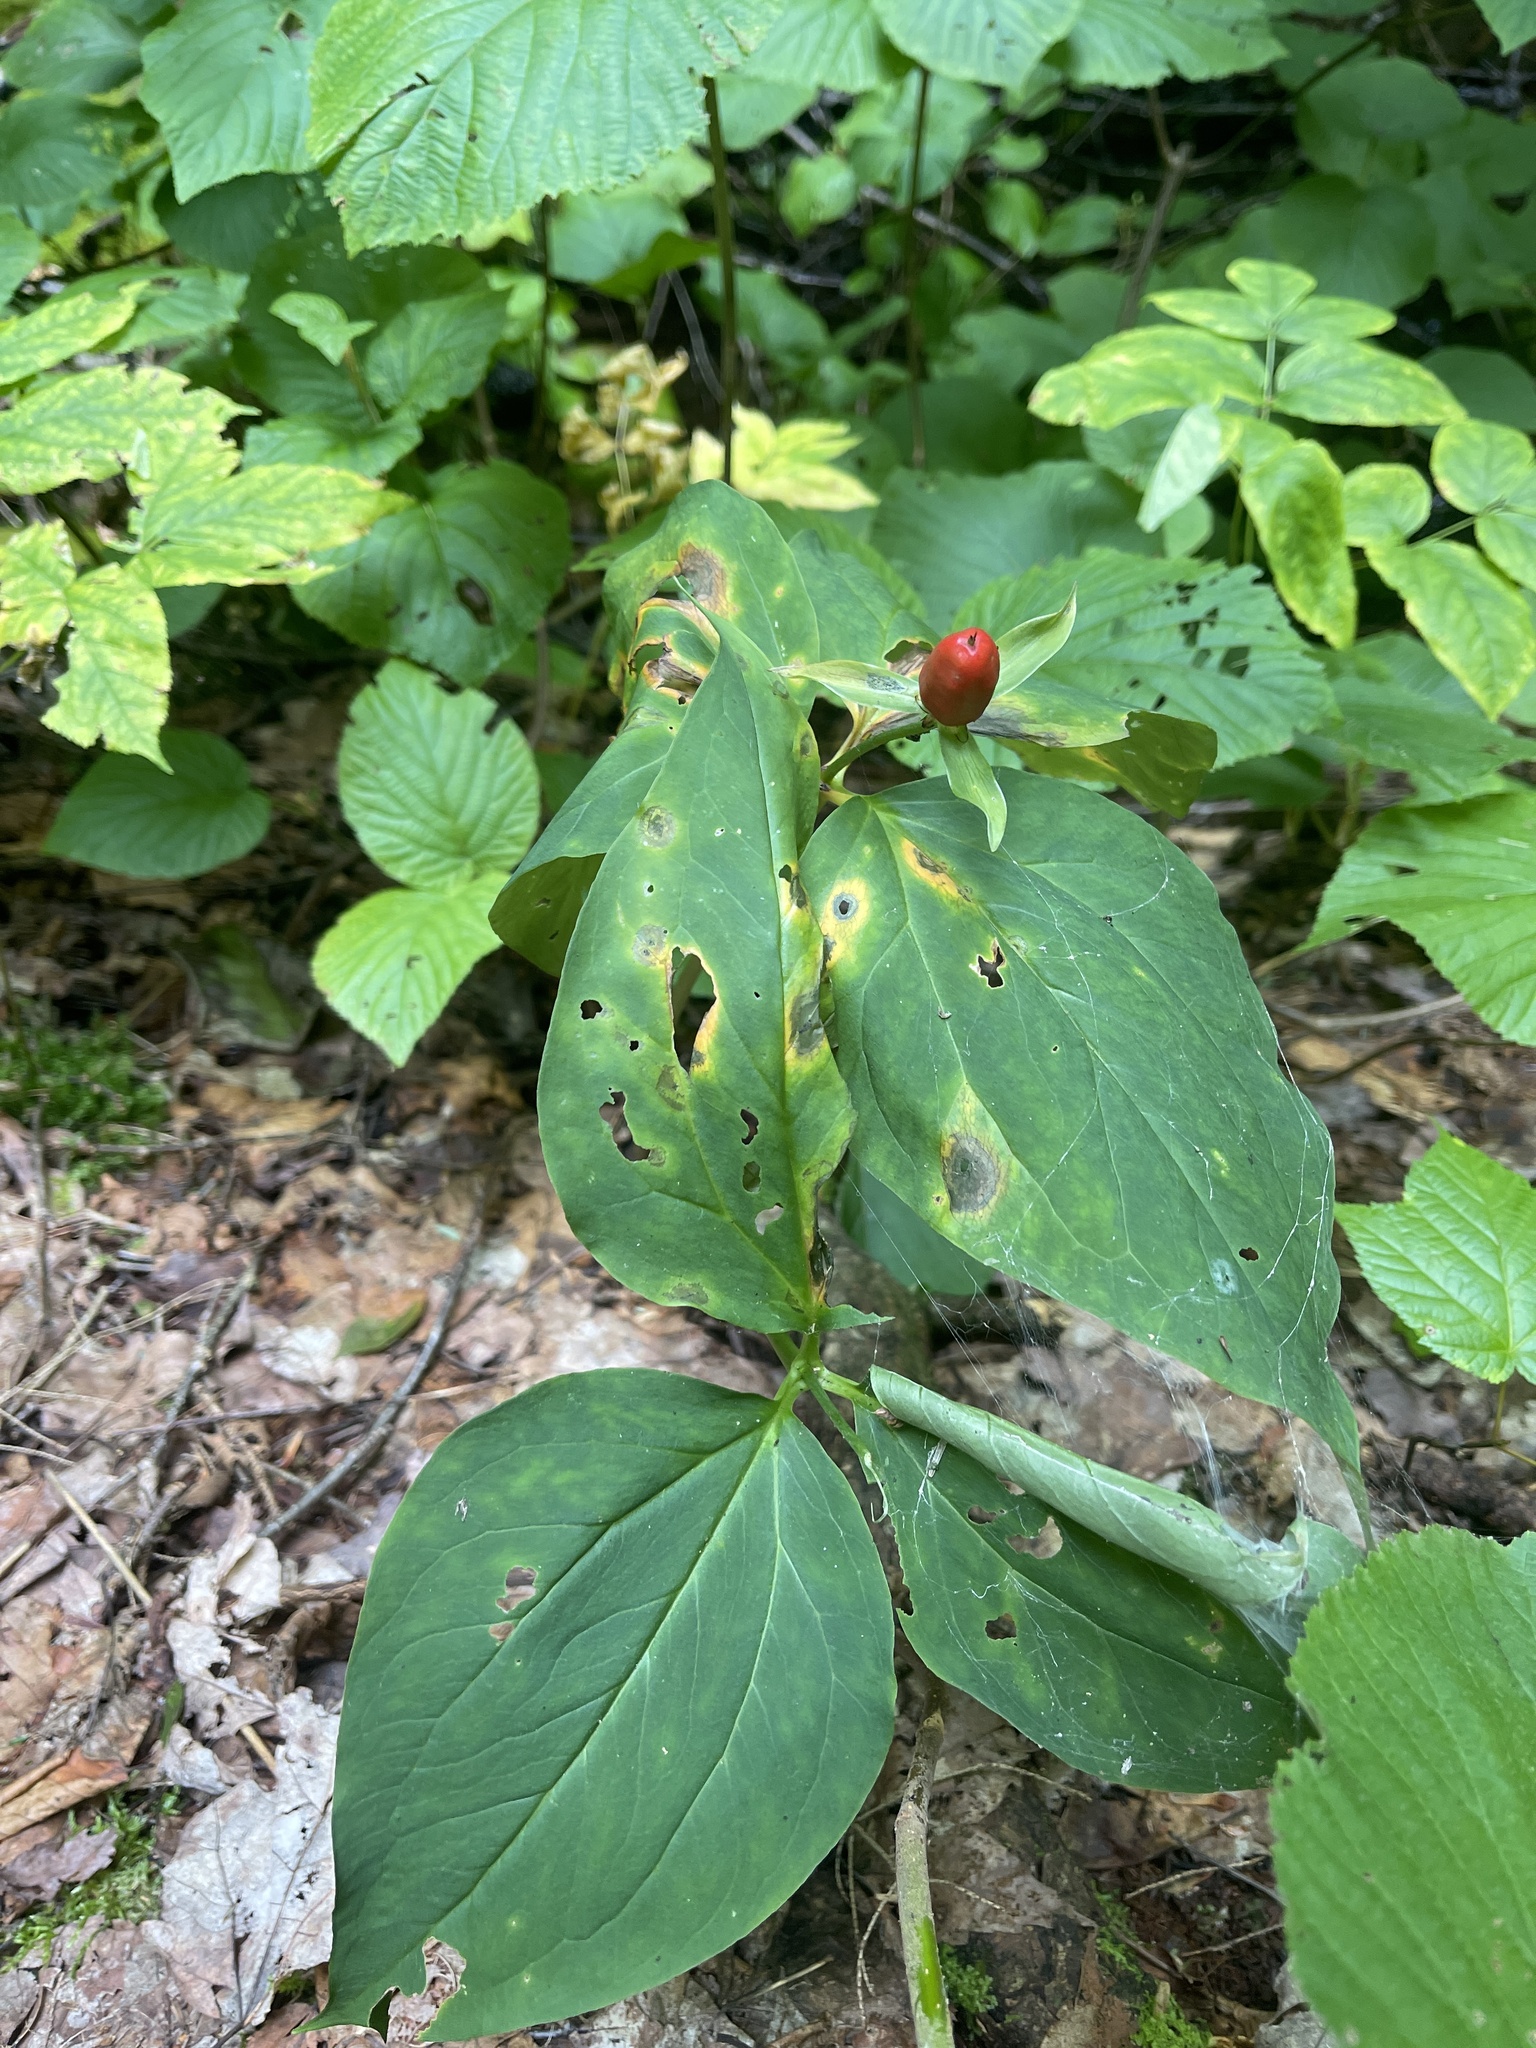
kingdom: Plantae
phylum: Tracheophyta
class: Liliopsida
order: Liliales
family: Melanthiaceae
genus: Trillium
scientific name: Trillium undulatum
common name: Paint trillium
